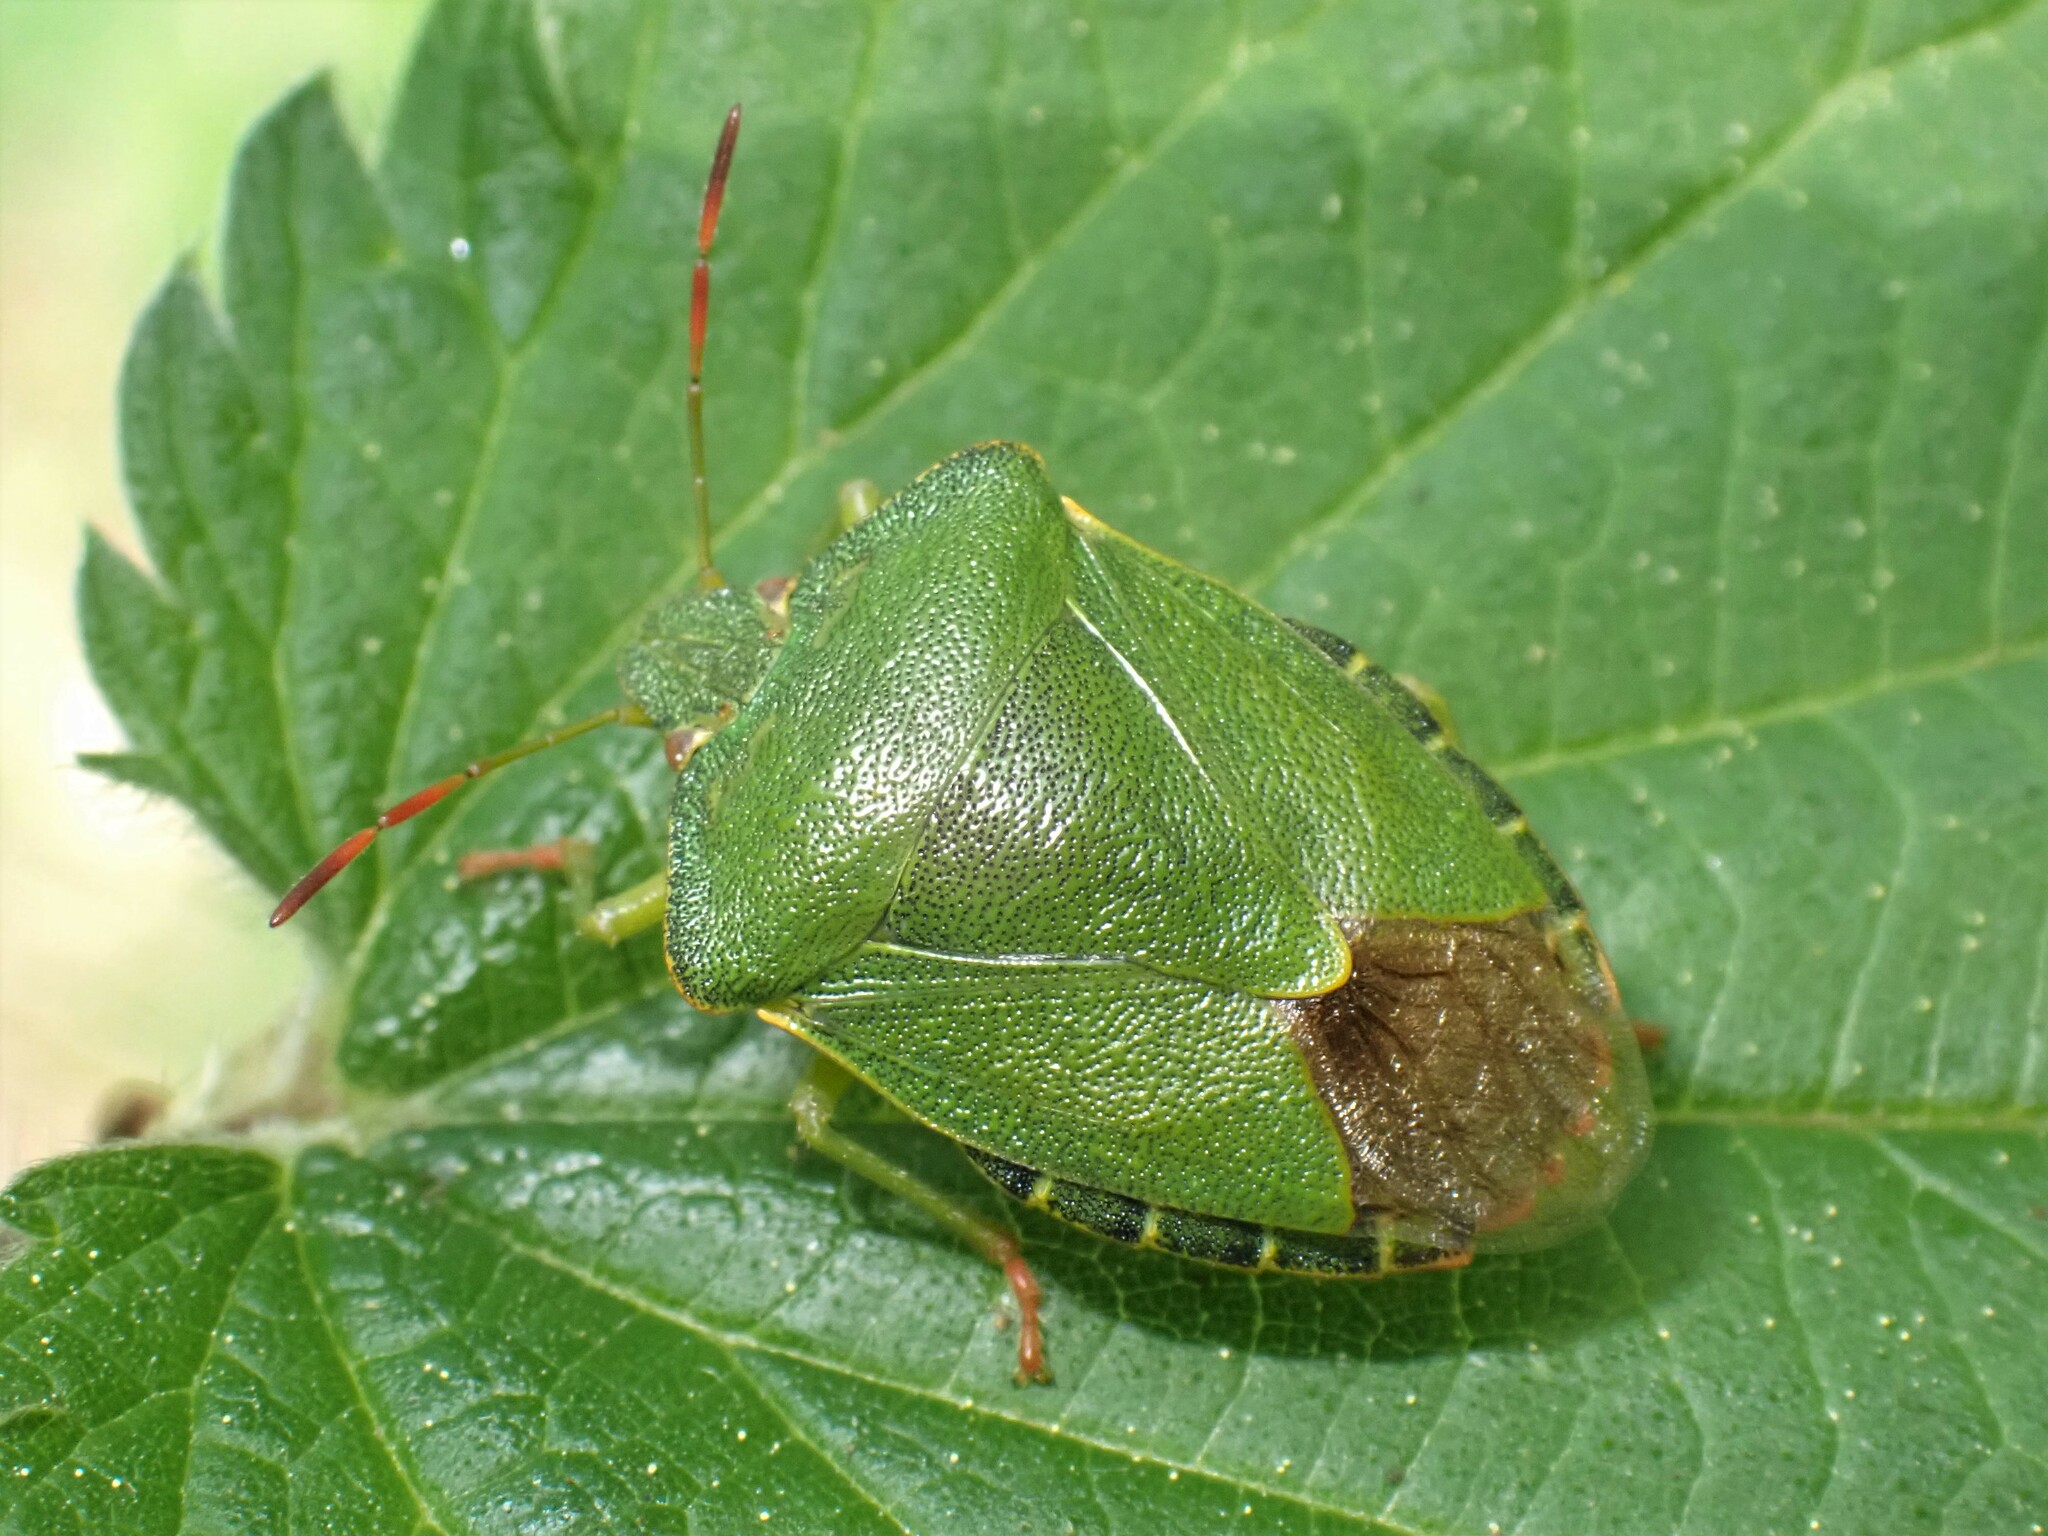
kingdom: Animalia
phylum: Arthropoda
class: Insecta
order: Hemiptera
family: Pentatomidae
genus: Palomena
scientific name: Palomena prasina
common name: Green shieldbug
